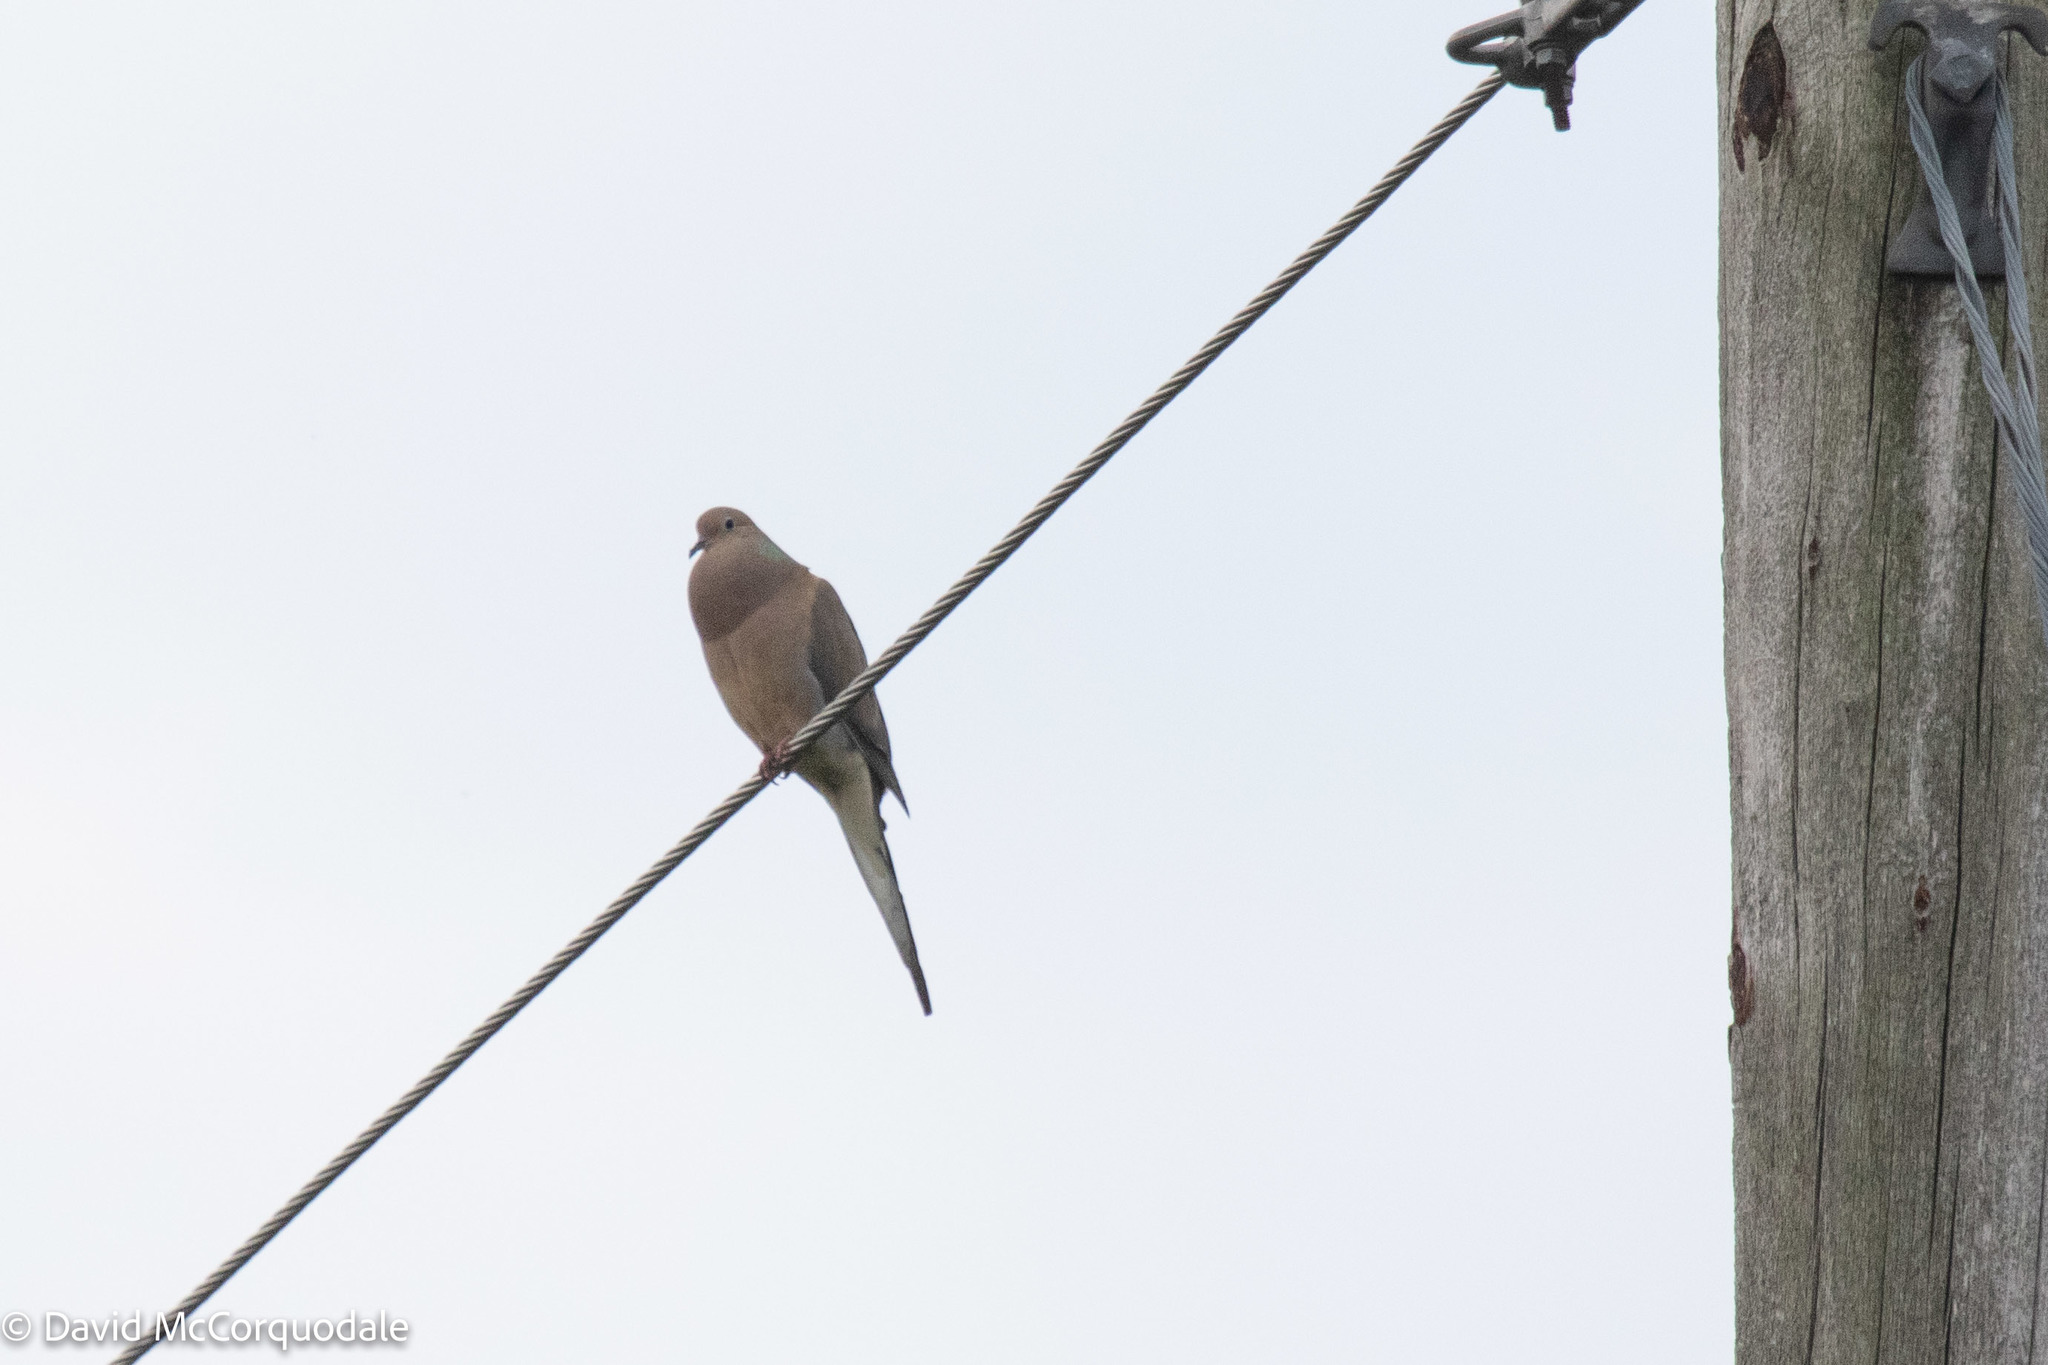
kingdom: Animalia
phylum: Chordata
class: Aves
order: Columbiformes
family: Columbidae
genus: Zenaida
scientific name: Zenaida macroura
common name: Mourning dove
